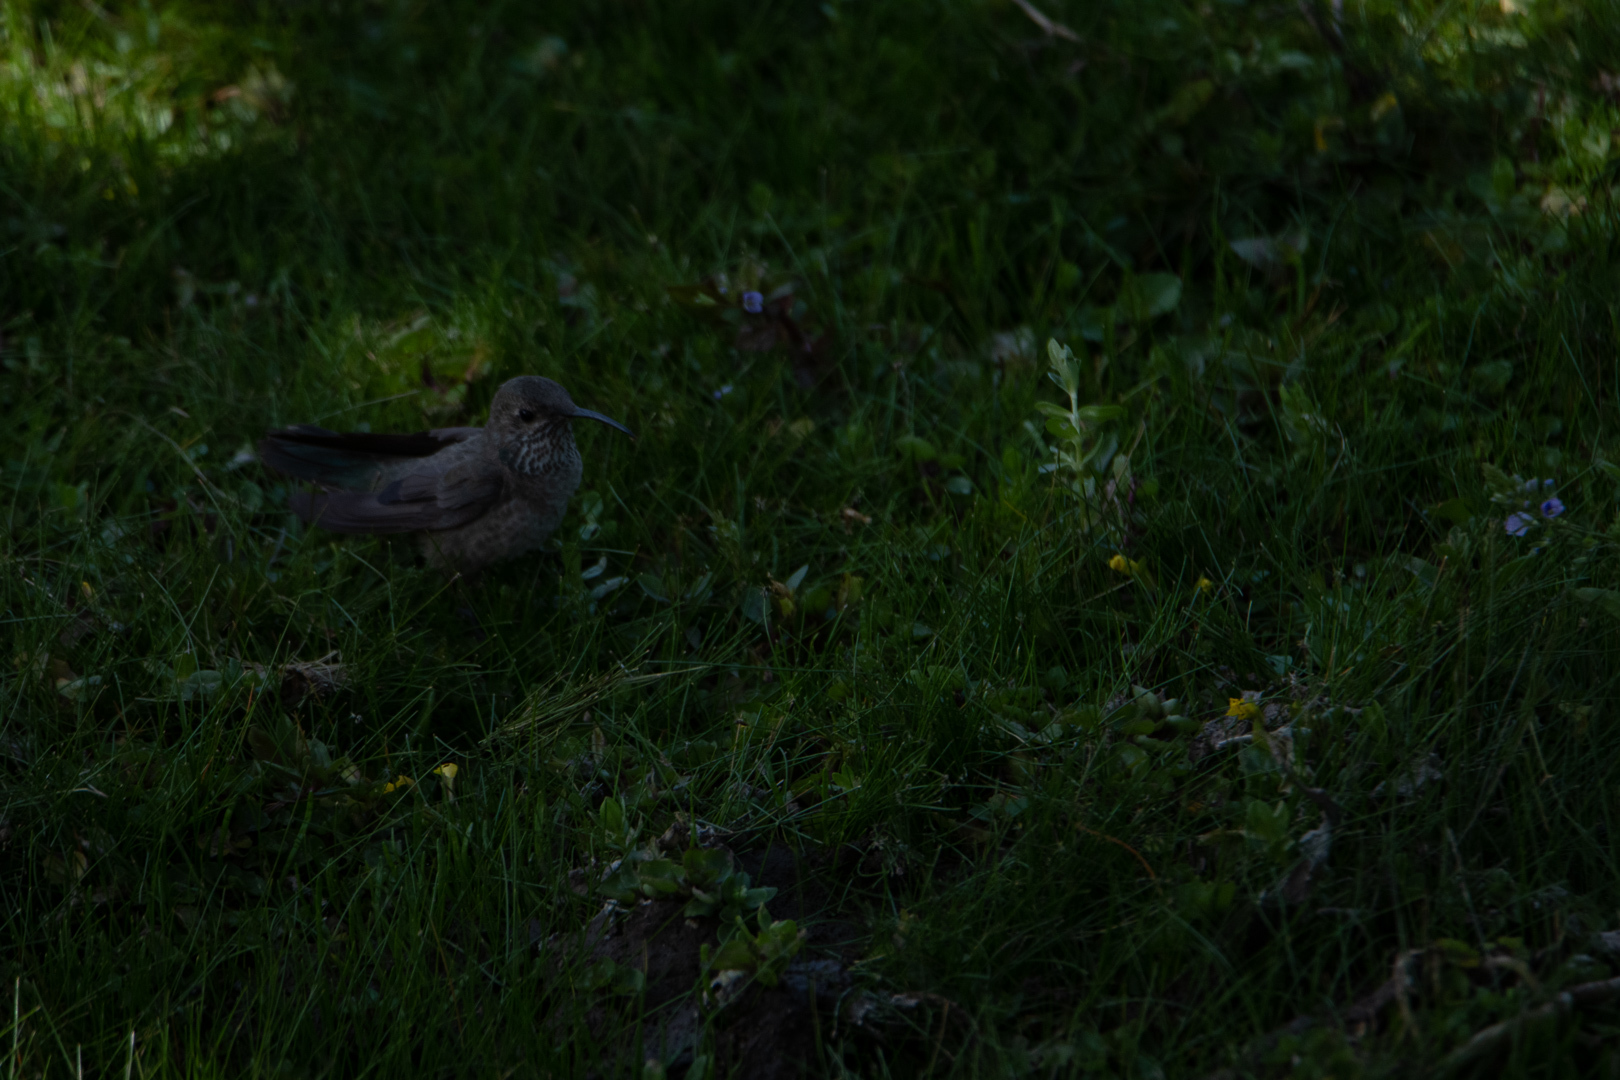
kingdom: Animalia
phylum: Chordata
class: Aves
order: Apodiformes
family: Trochilidae
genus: Oreotrochilus
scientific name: Oreotrochilus leucopleurus
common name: White-sided hillstar
